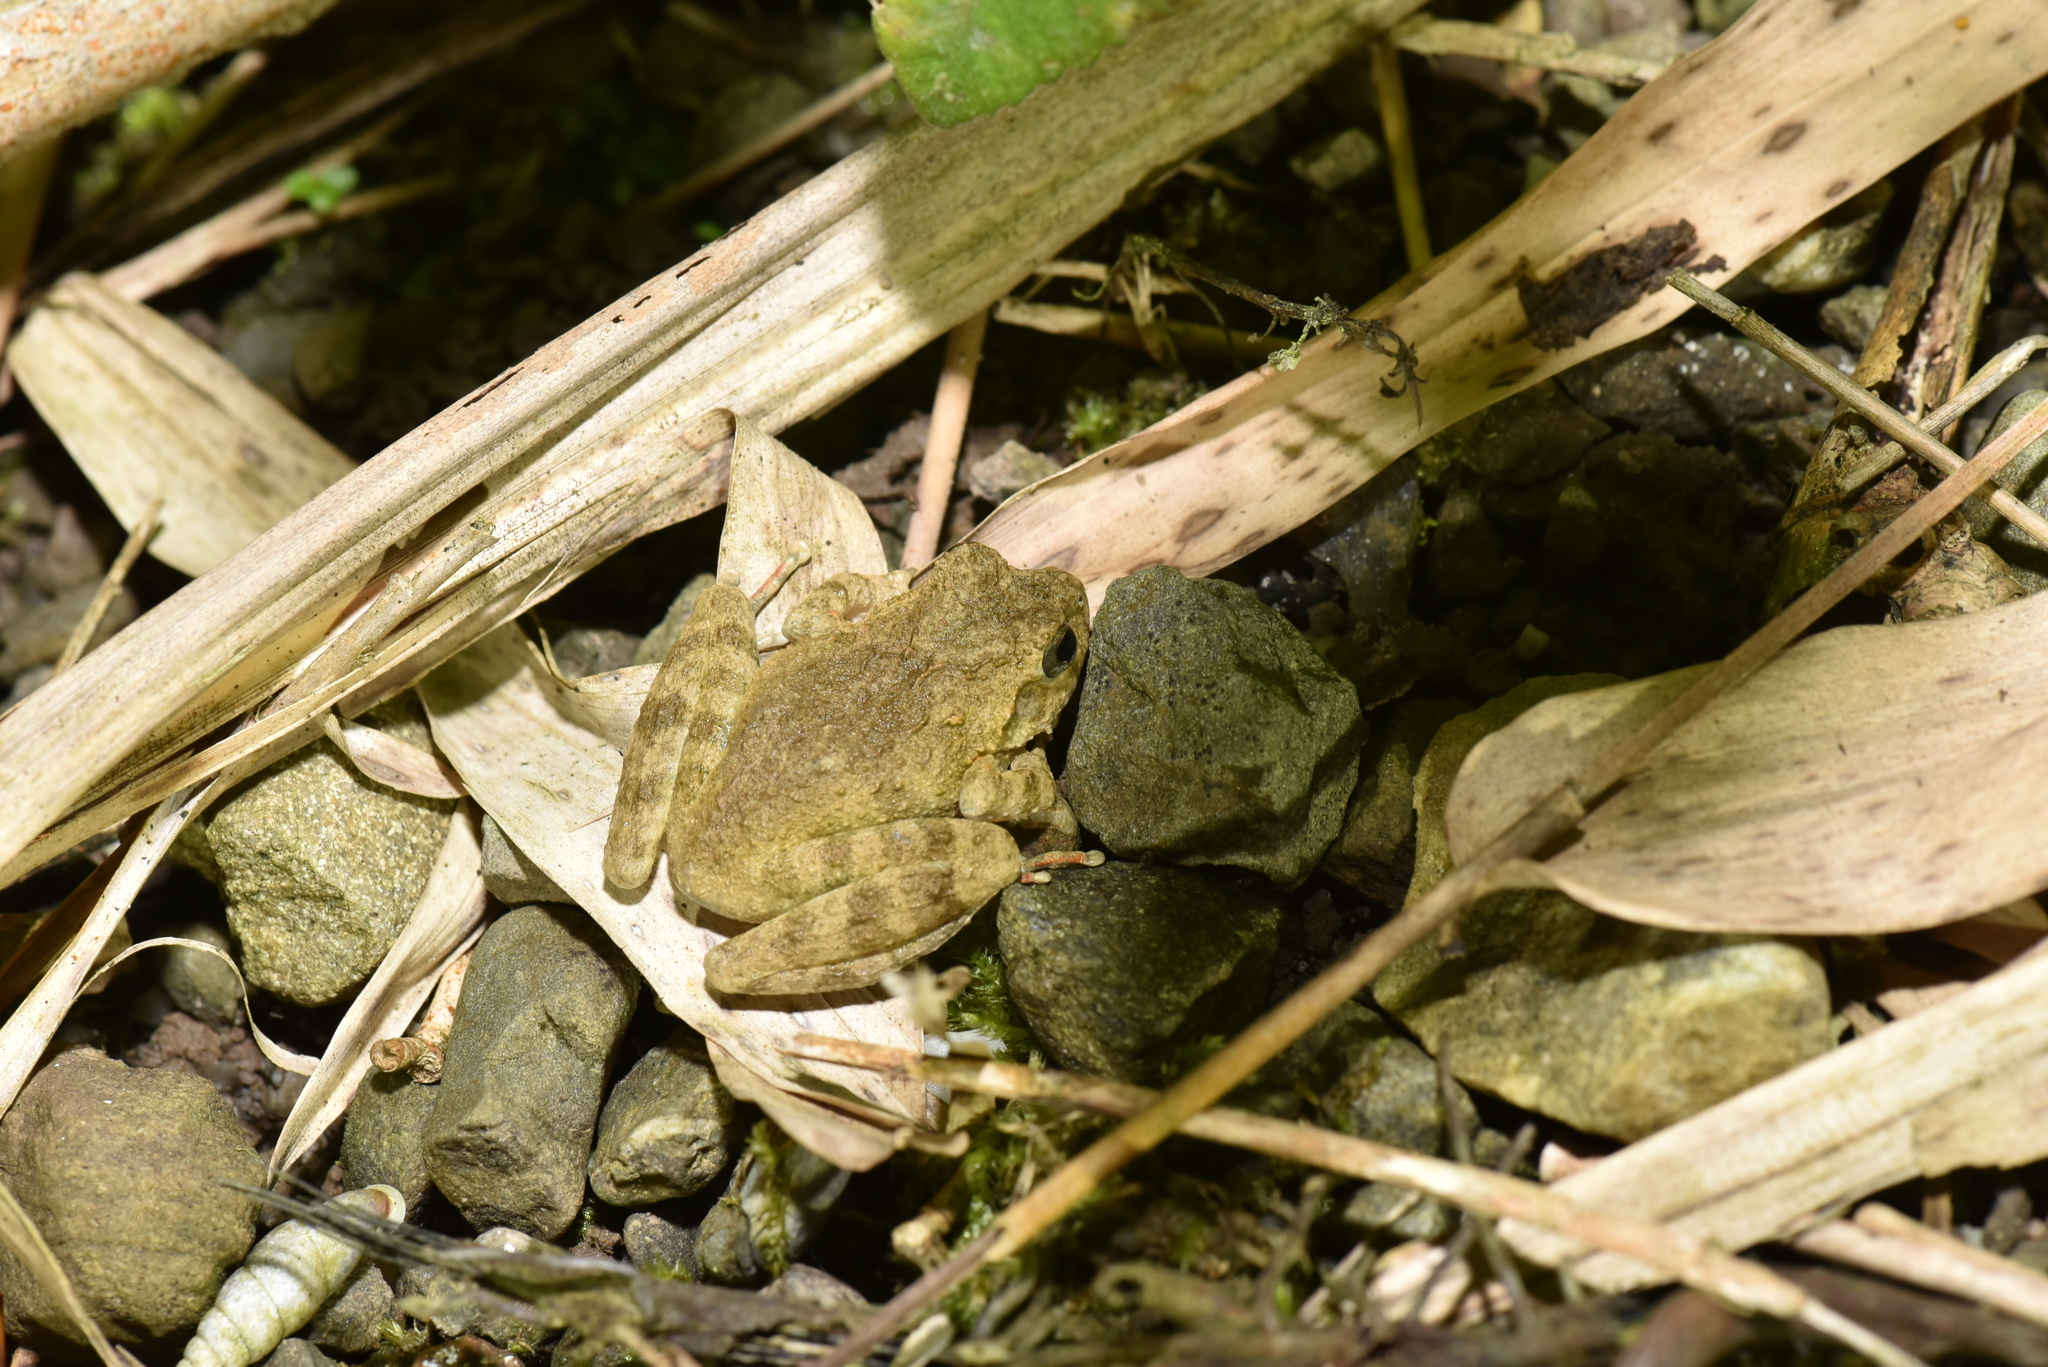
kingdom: Animalia
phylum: Chordata
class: Amphibia
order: Anura
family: Rhacophoridae
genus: Buergeria
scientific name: Buergeria otai
